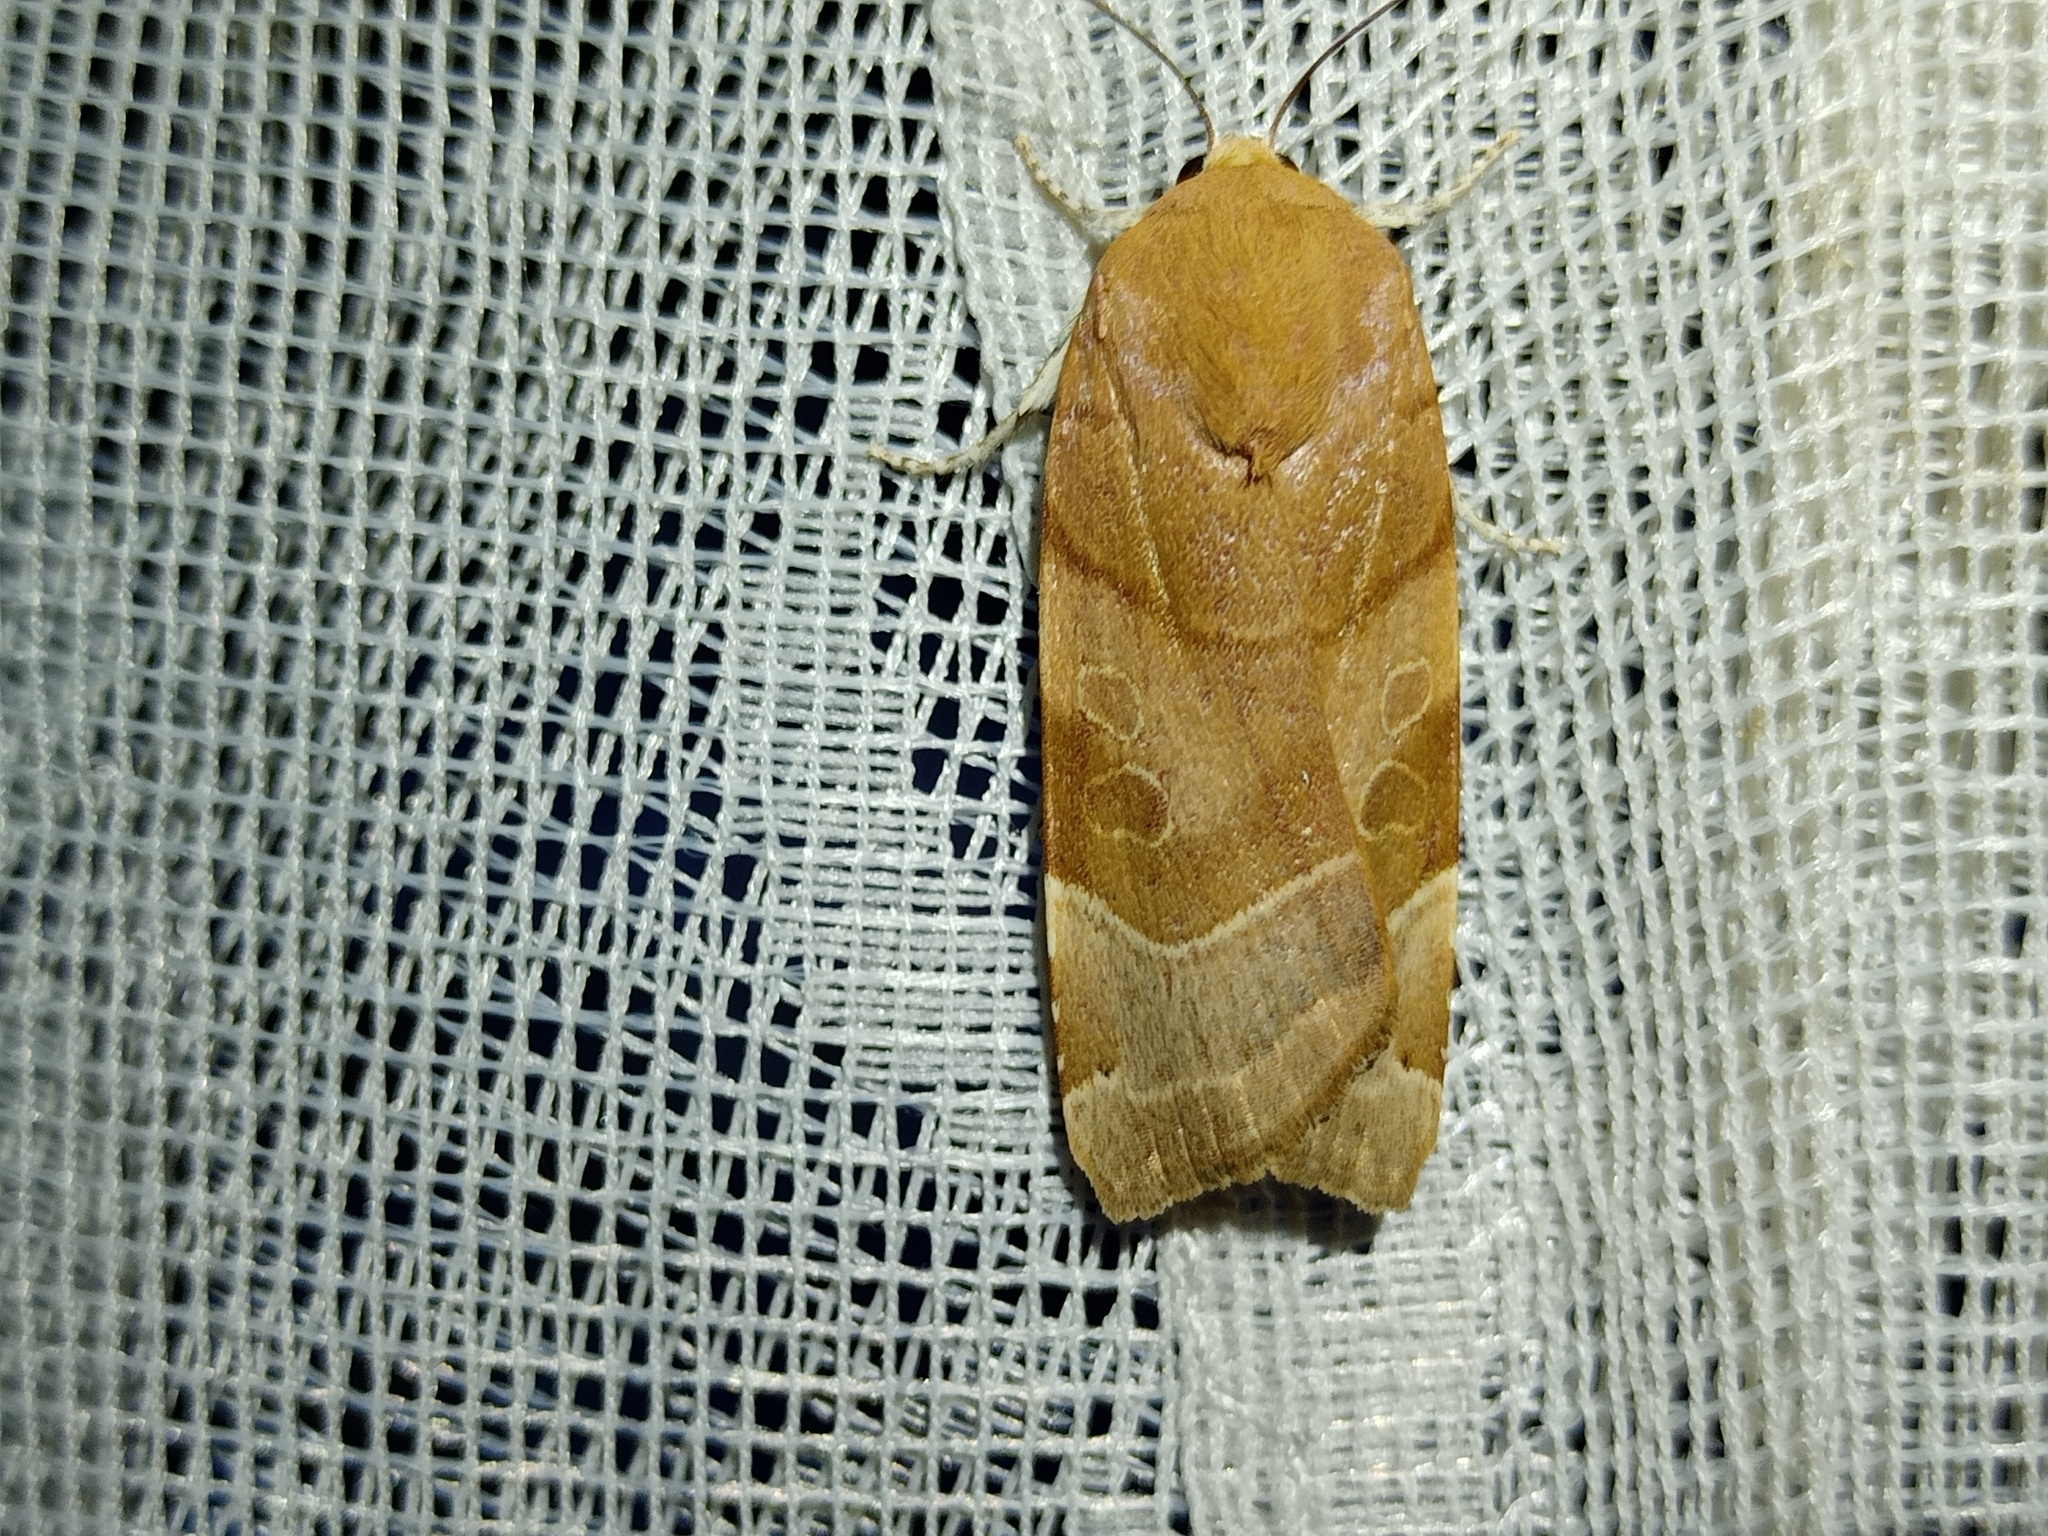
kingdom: Animalia
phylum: Arthropoda
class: Insecta
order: Lepidoptera
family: Noctuidae
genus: Noctua
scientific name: Noctua fimbriata
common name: Broad-bordered yellow underwing
